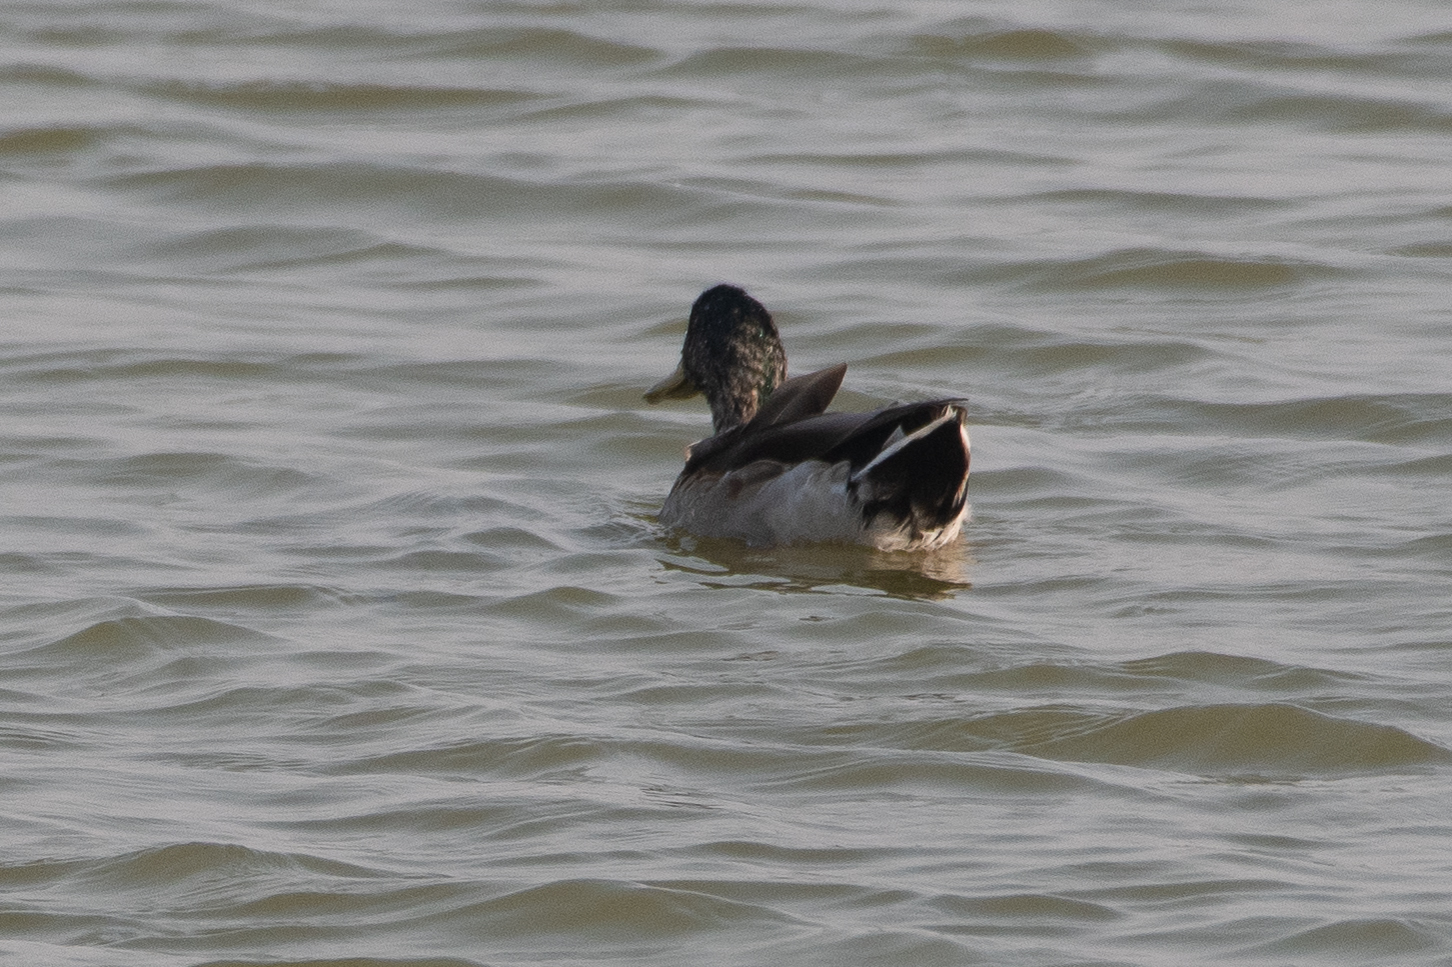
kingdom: Animalia
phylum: Chordata
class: Aves
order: Anseriformes
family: Anatidae
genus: Anas
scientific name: Anas platyrhynchos
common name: Mallard
